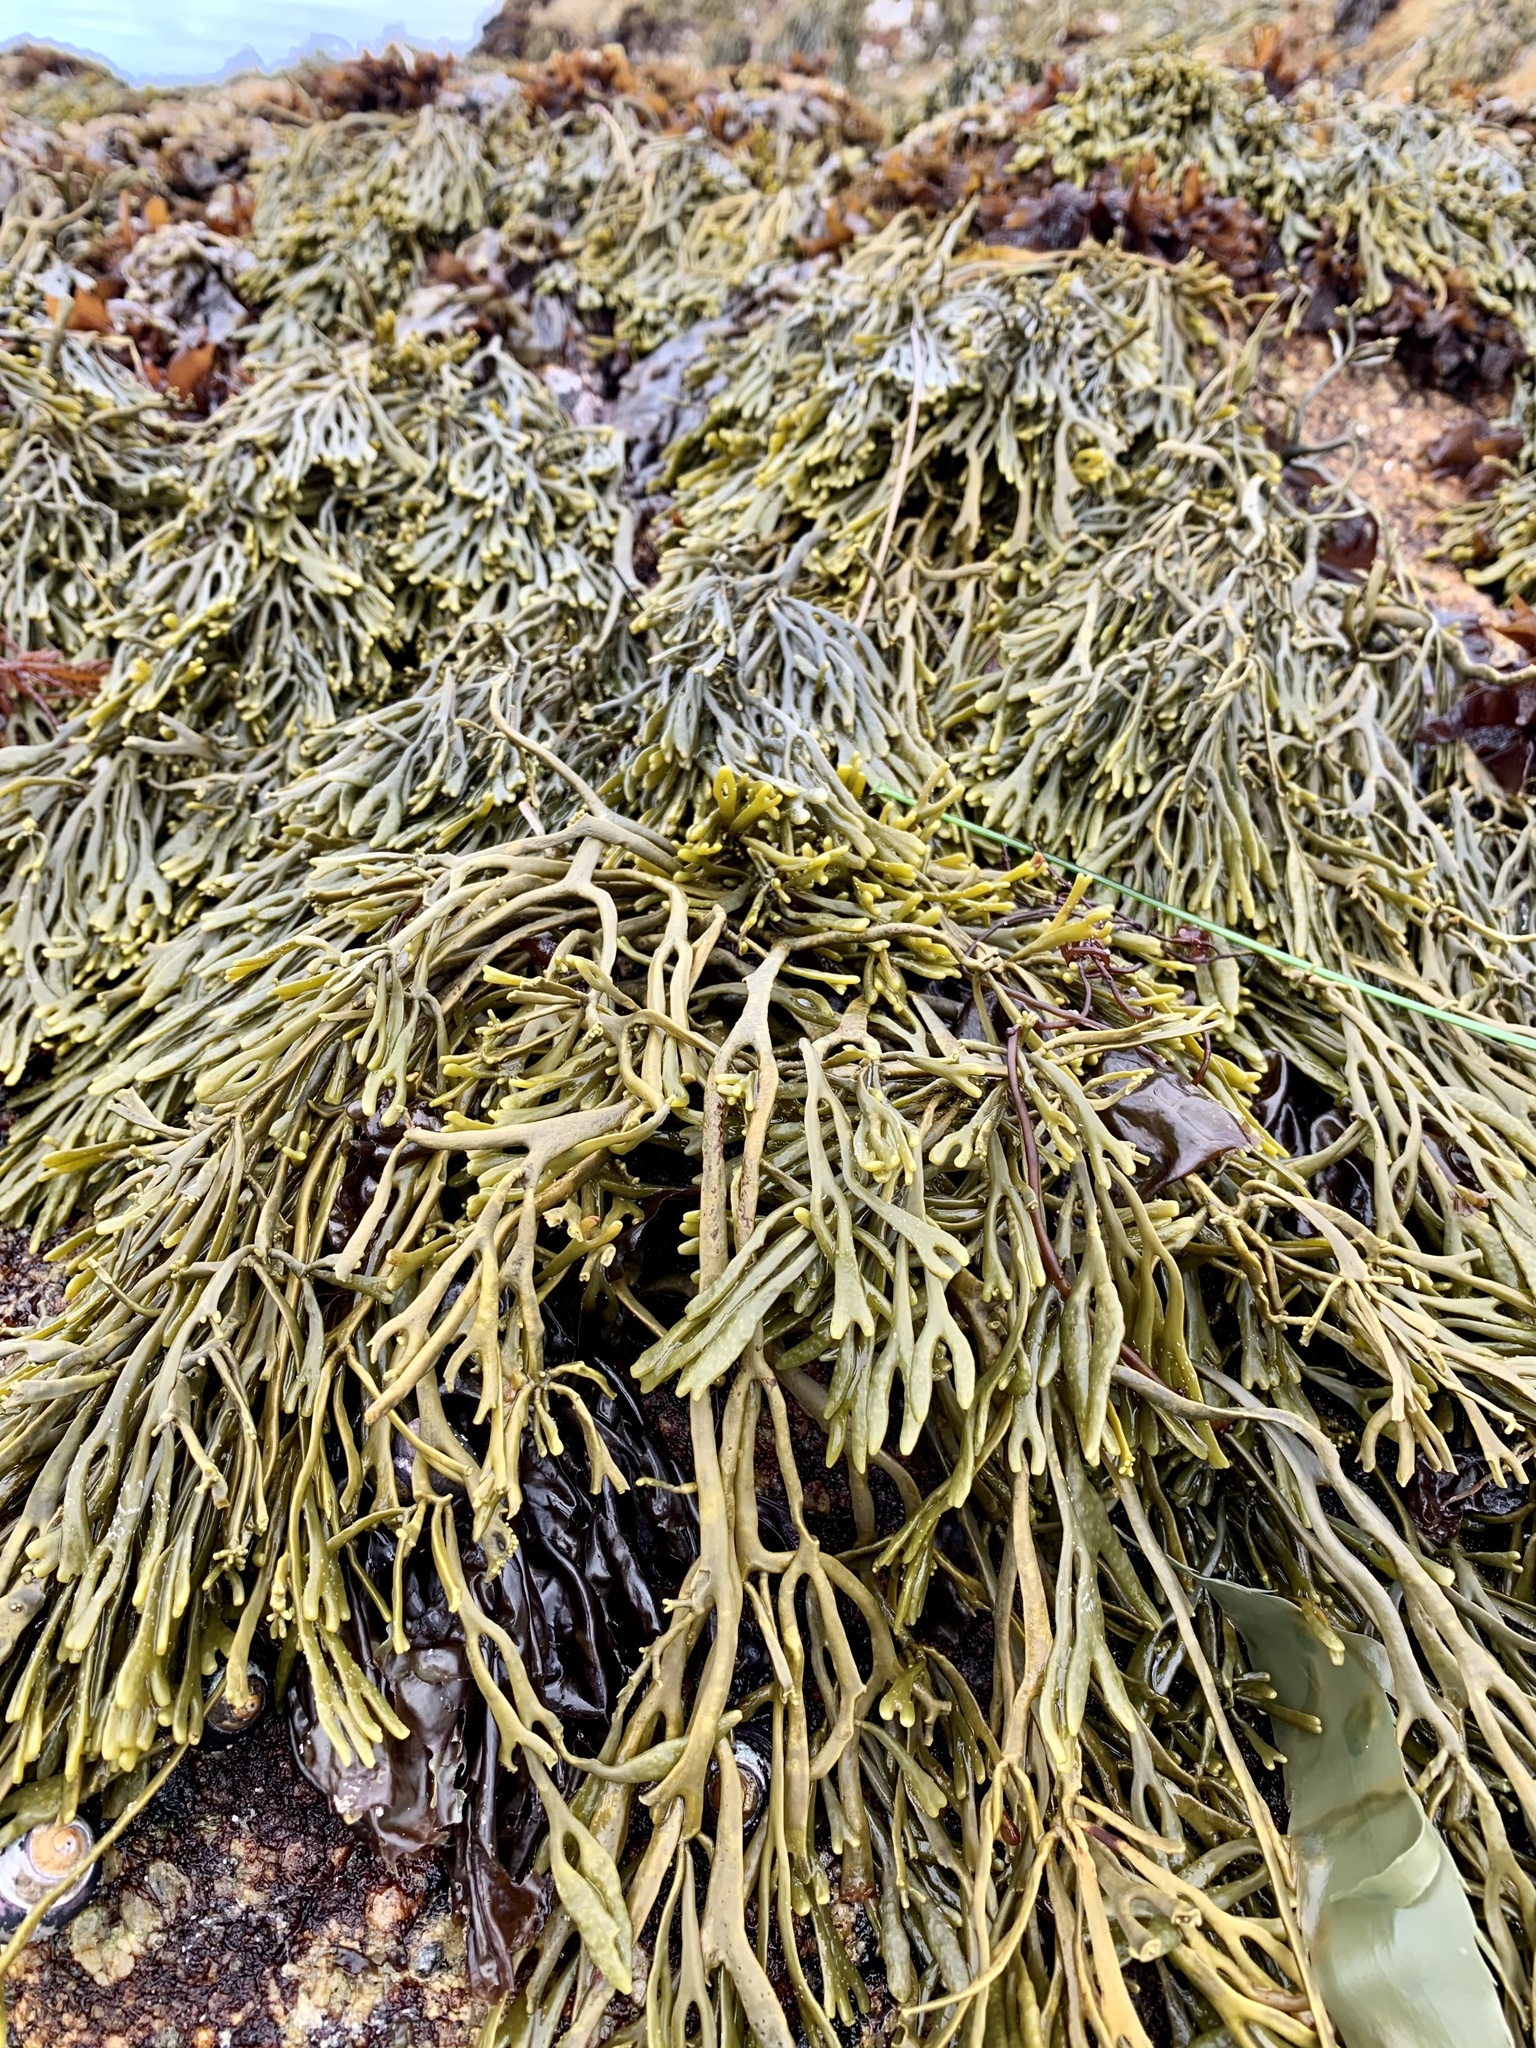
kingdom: Chromista
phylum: Ochrophyta
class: Phaeophyceae
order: Fucales
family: Fucaceae
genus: Silvetia
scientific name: Silvetia
